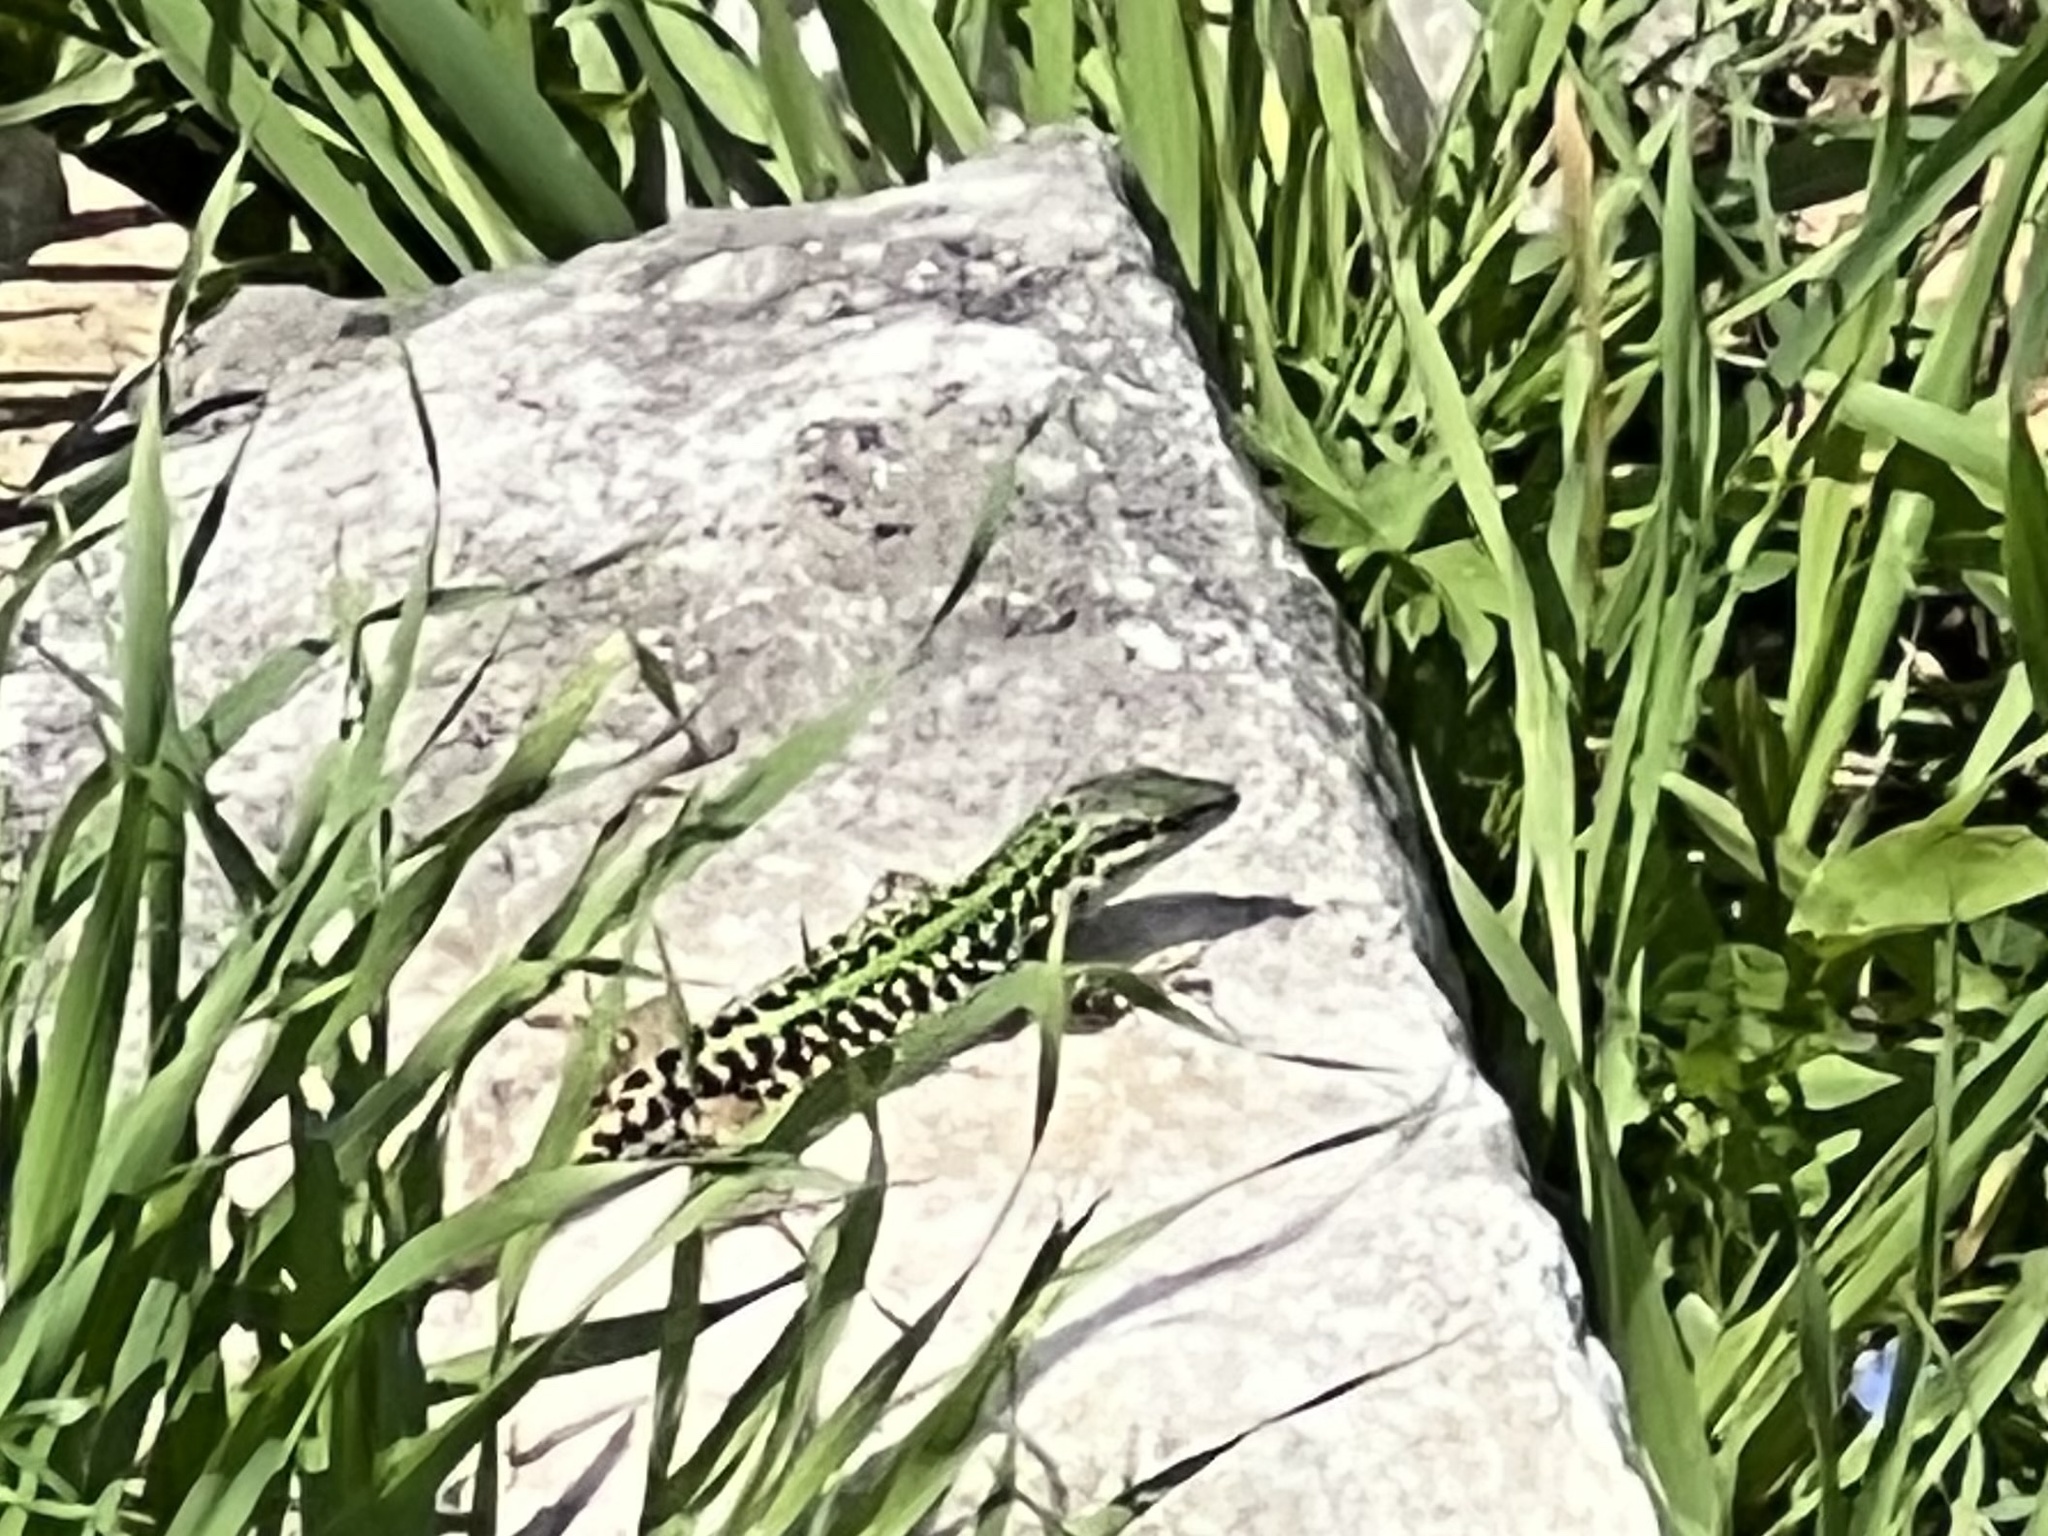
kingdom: Animalia
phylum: Chordata
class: Squamata
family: Lacertidae
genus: Podarcis
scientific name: Podarcis siculus
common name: Italian wall lizard
